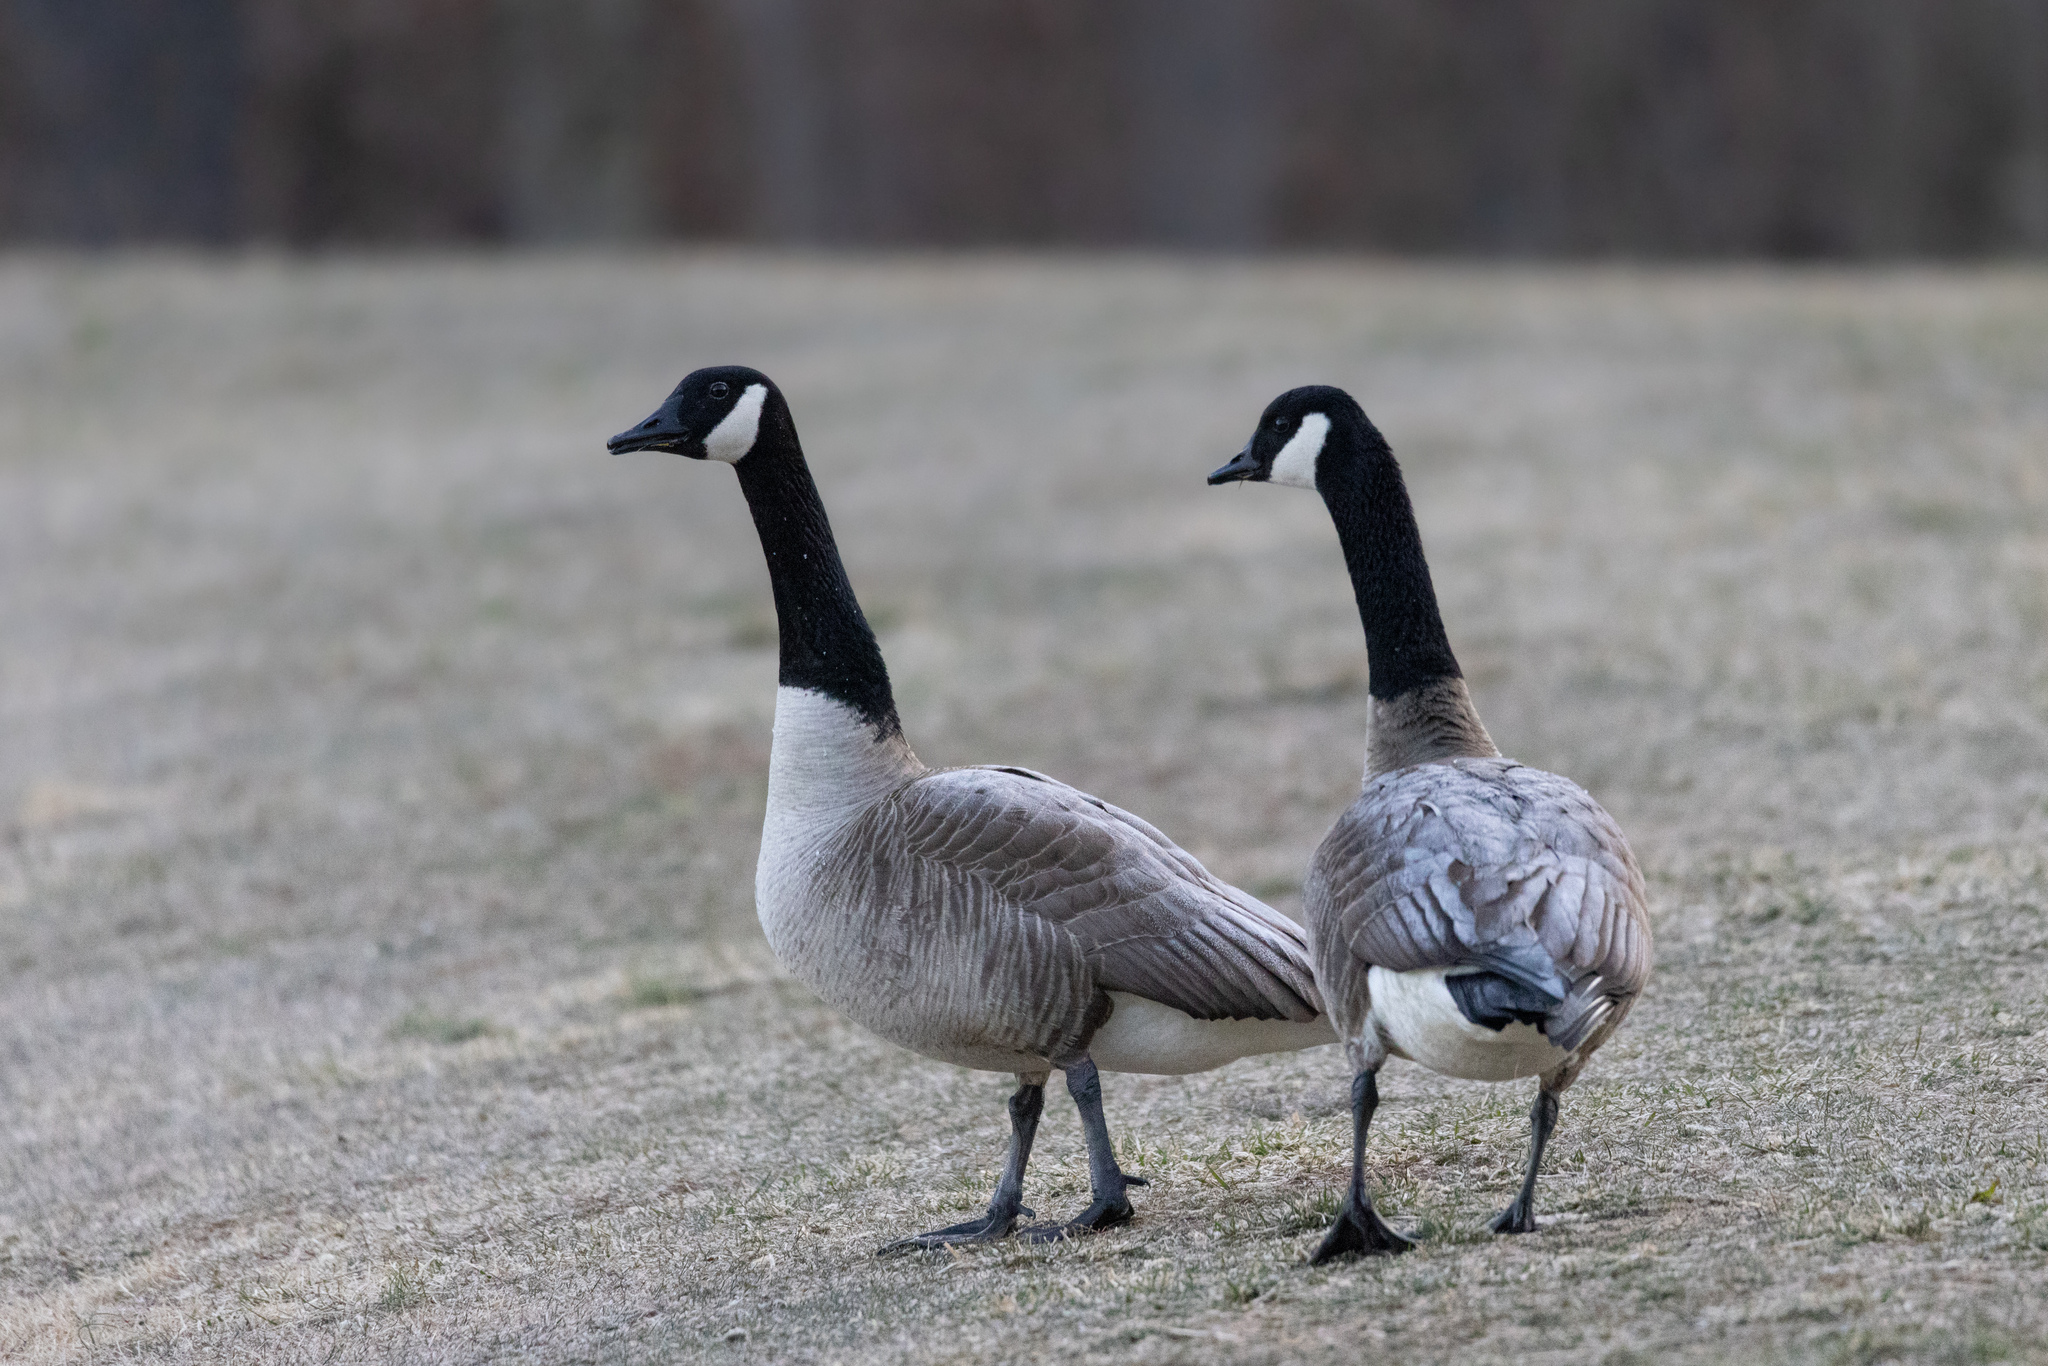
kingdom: Animalia
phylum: Chordata
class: Aves
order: Anseriformes
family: Anatidae
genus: Branta
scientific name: Branta canadensis
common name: Canada goose
